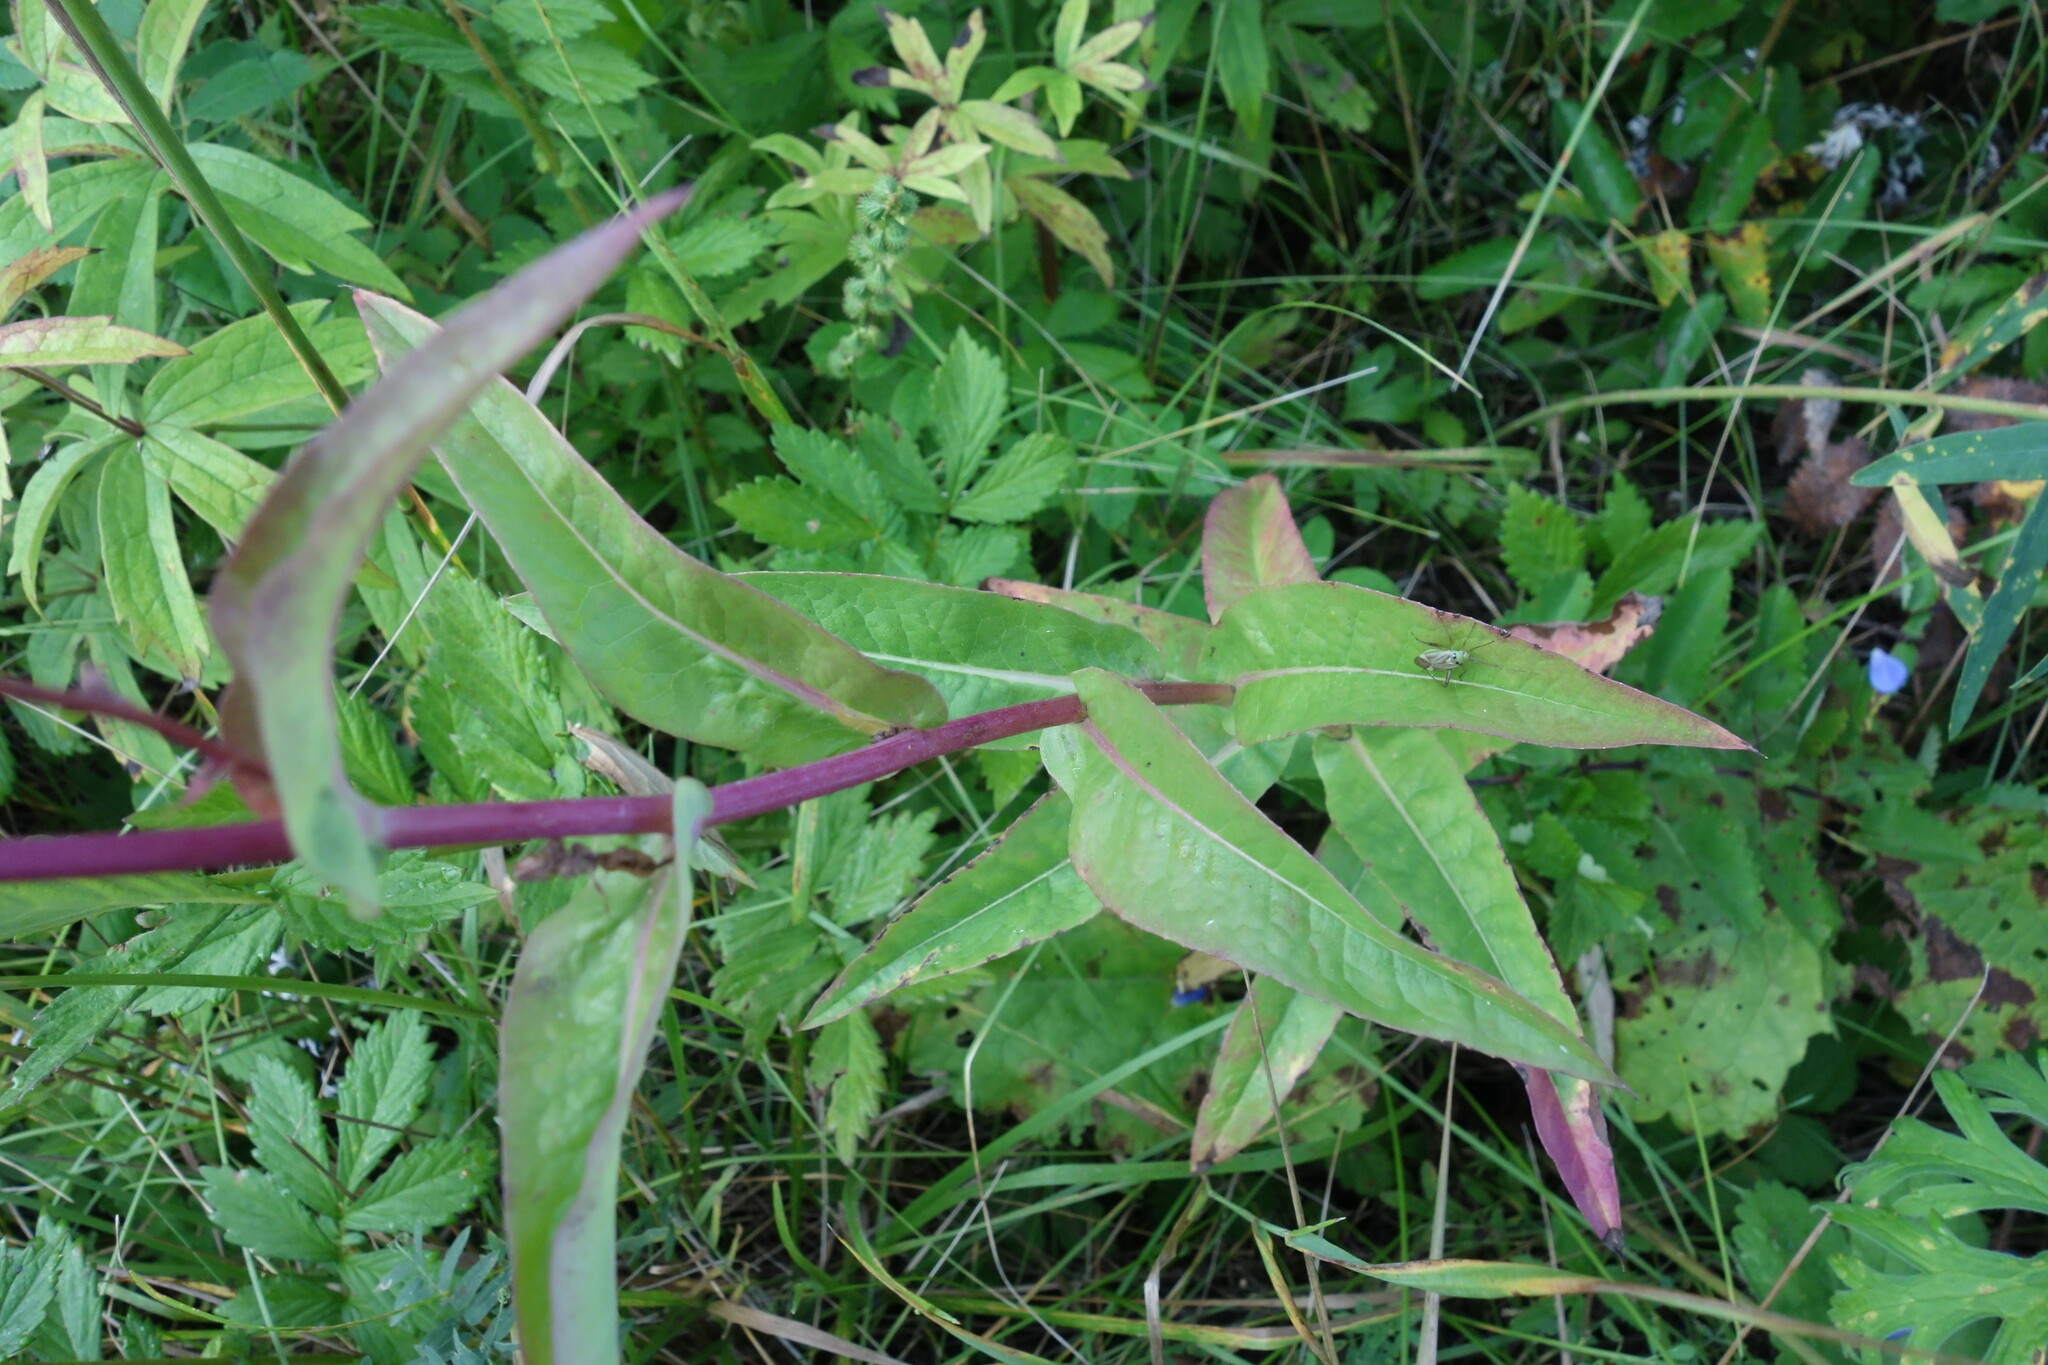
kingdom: Plantae
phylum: Tracheophyta
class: Magnoliopsida
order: Asterales
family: Asteraceae
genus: Lactuca
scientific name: Lactuca sibirica
